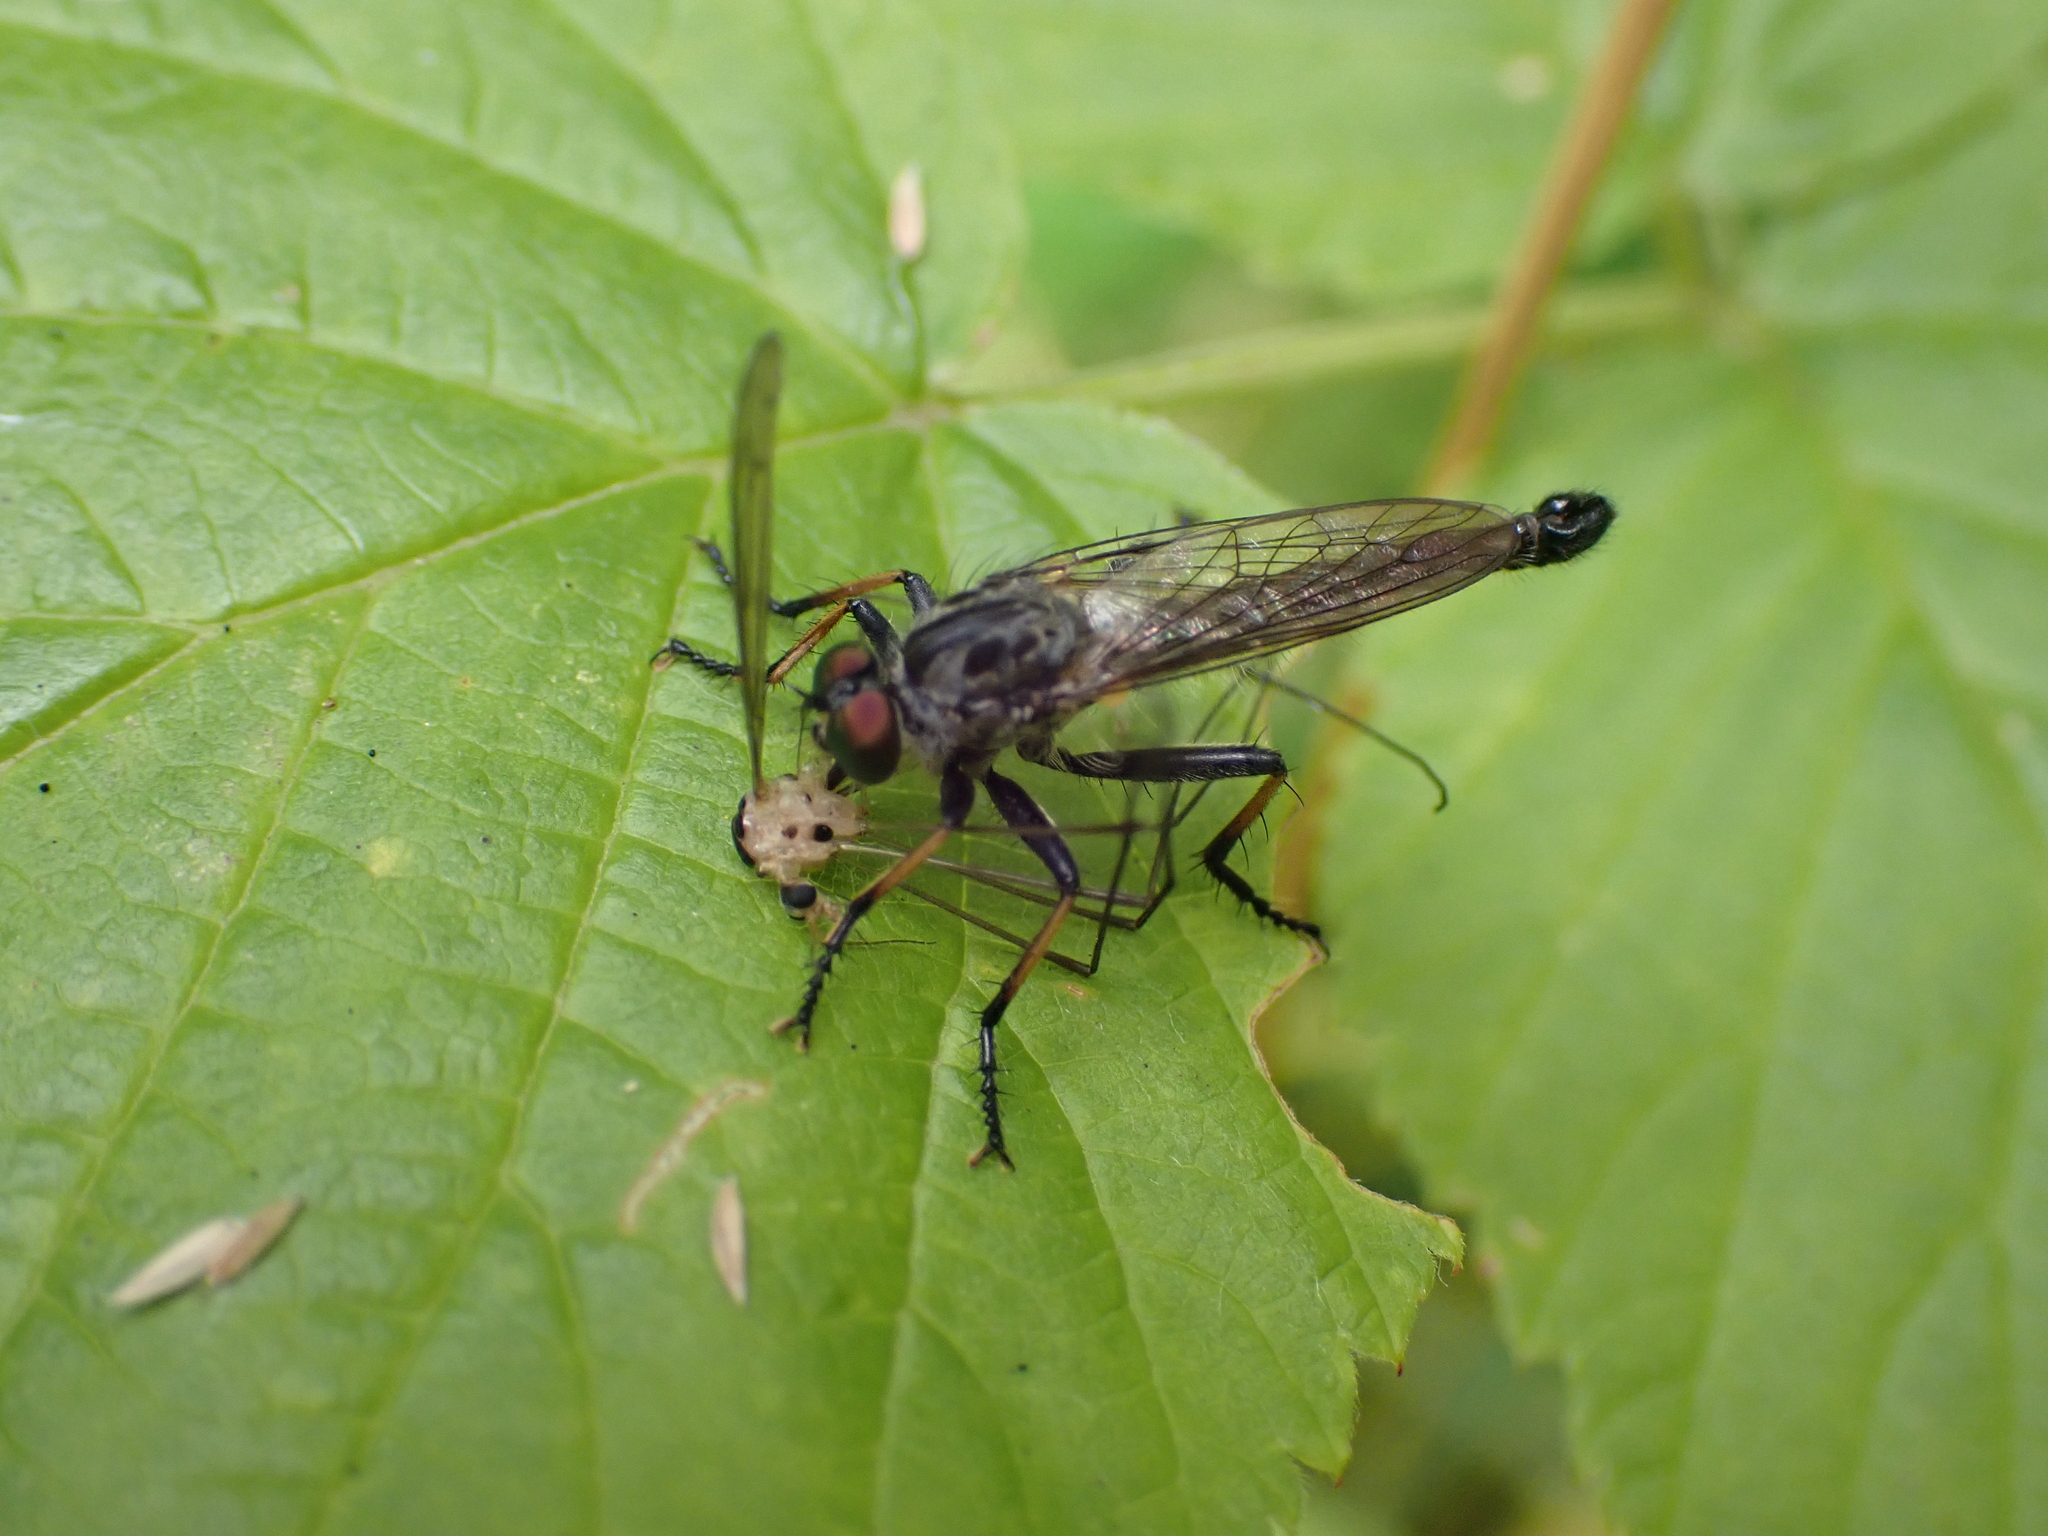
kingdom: Animalia
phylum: Arthropoda
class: Insecta
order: Diptera
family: Asilidae
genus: Neoitamus
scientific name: Neoitamus cyanurus
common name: Common awl robberfly
